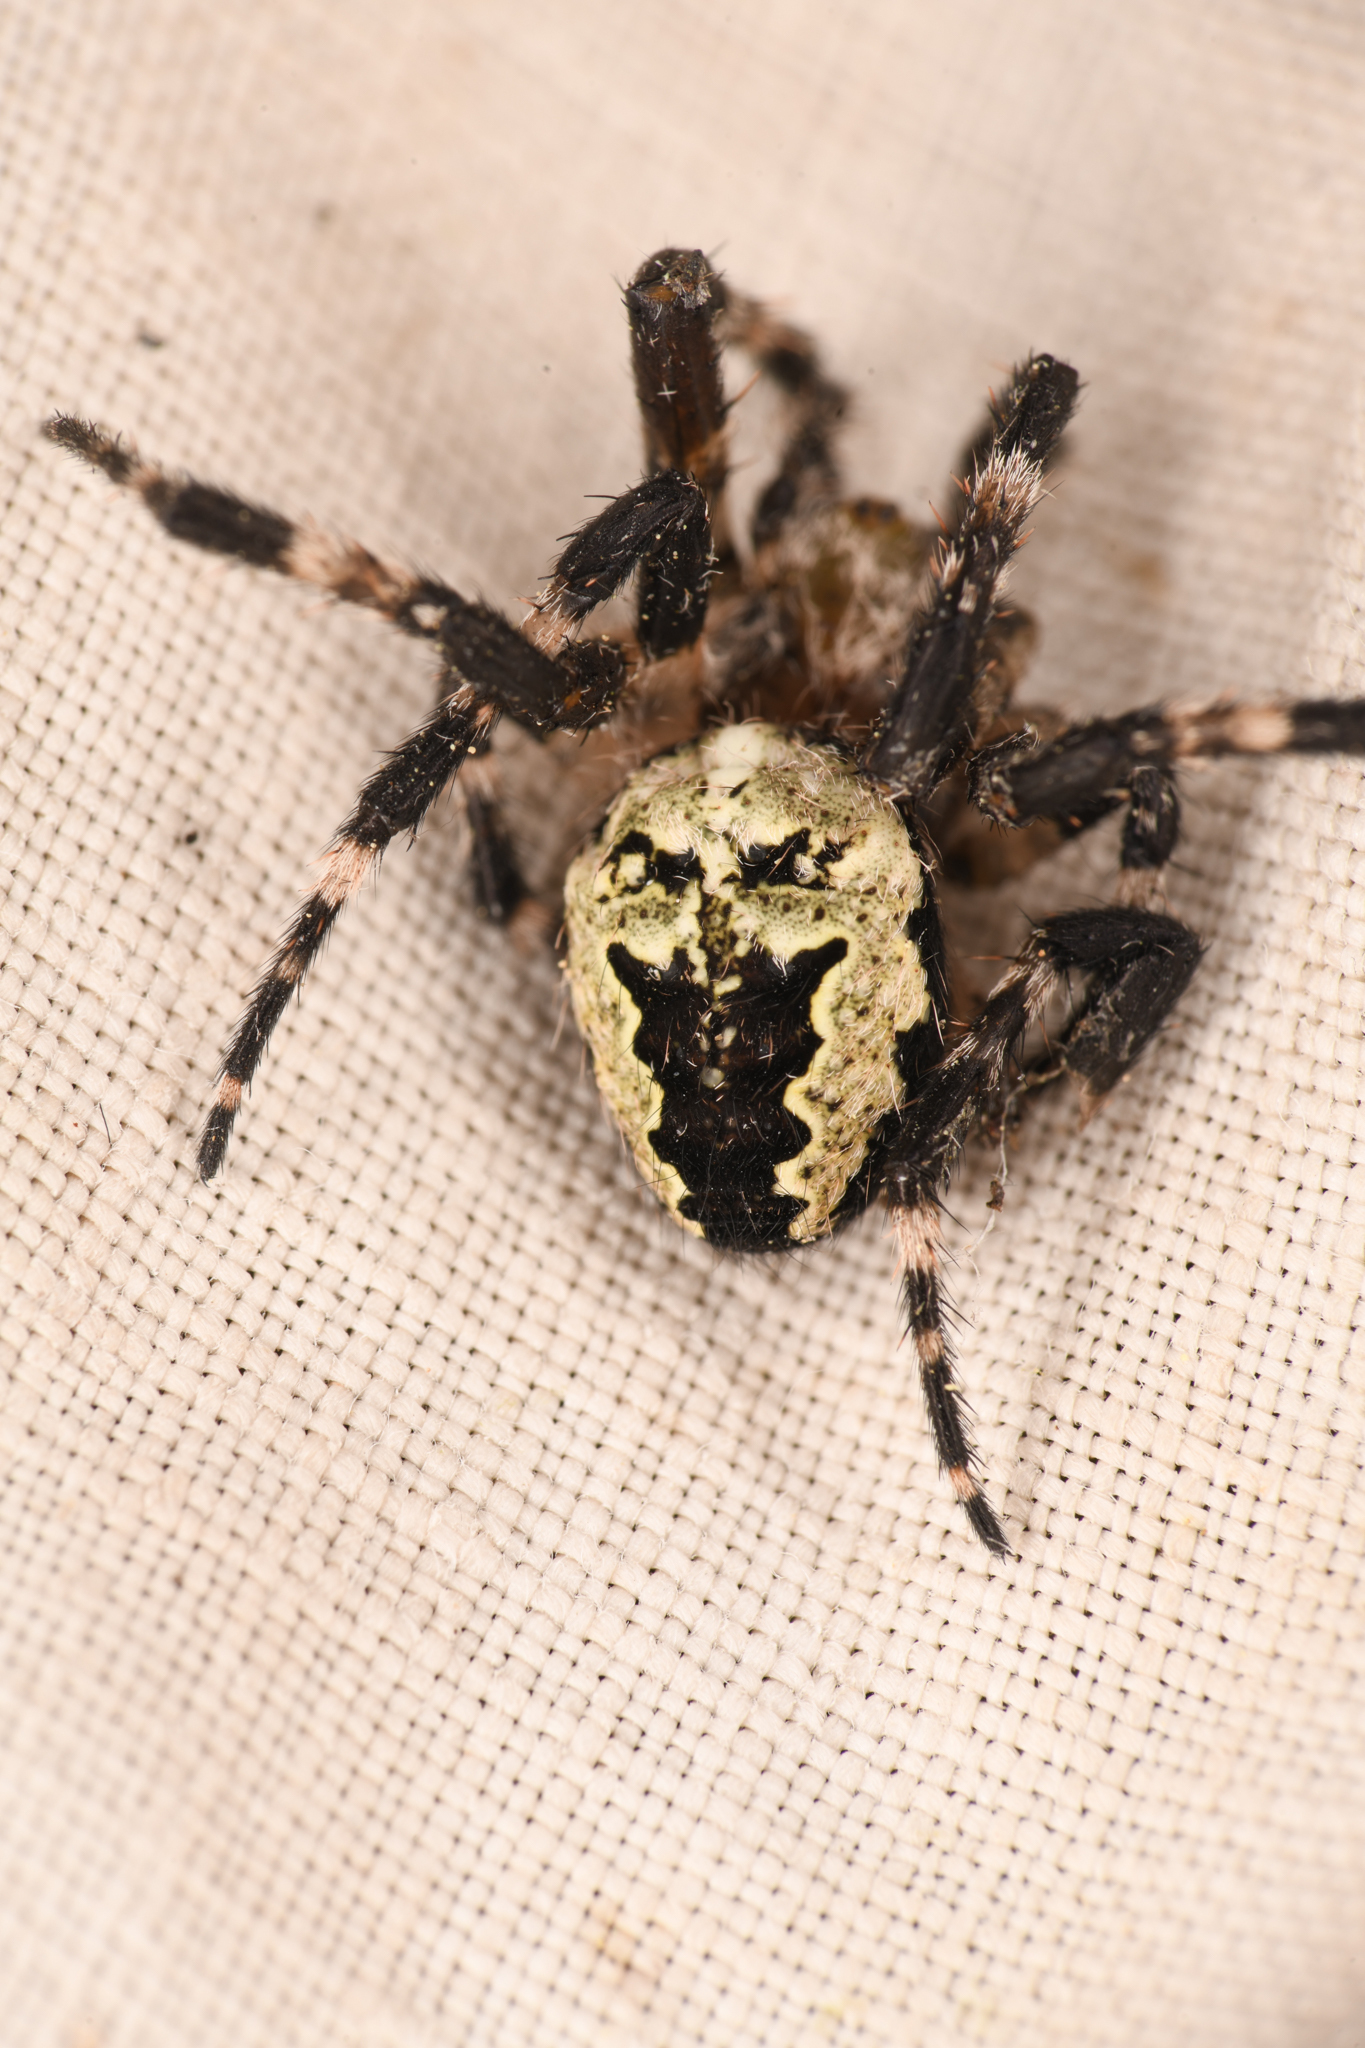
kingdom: Animalia
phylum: Arthropoda
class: Arachnida
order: Araneae
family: Araneidae
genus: Araneus
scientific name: Araneus nordmanni
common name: Nordmann's orbweaver
